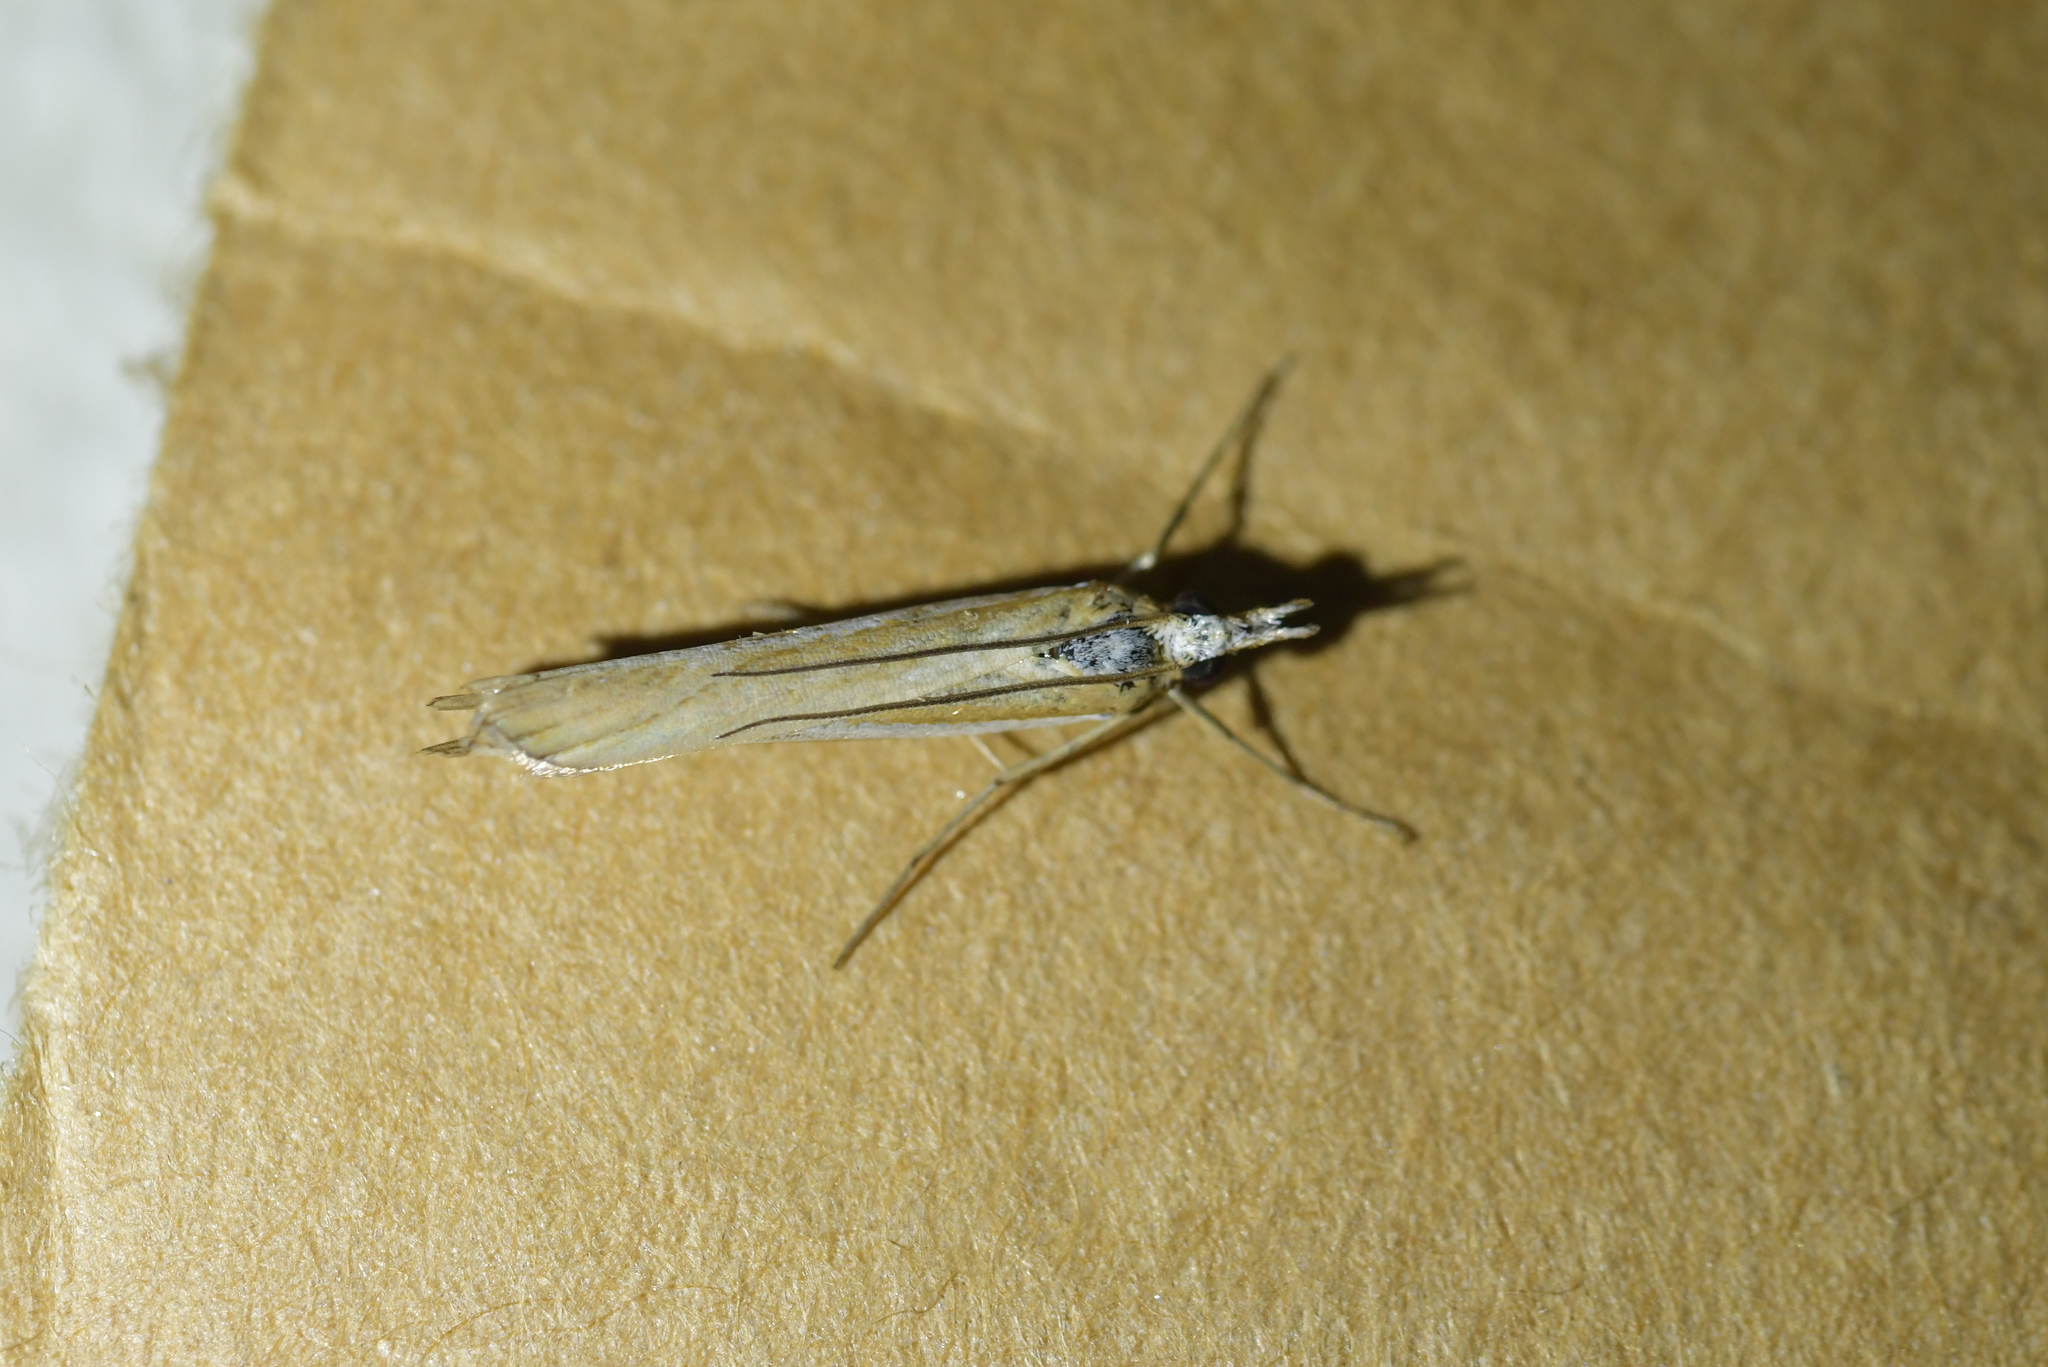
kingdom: Animalia
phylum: Arthropoda
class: Insecta
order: Lepidoptera
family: Crambidae
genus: Orocrambus
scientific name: Orocrambus vittellus
